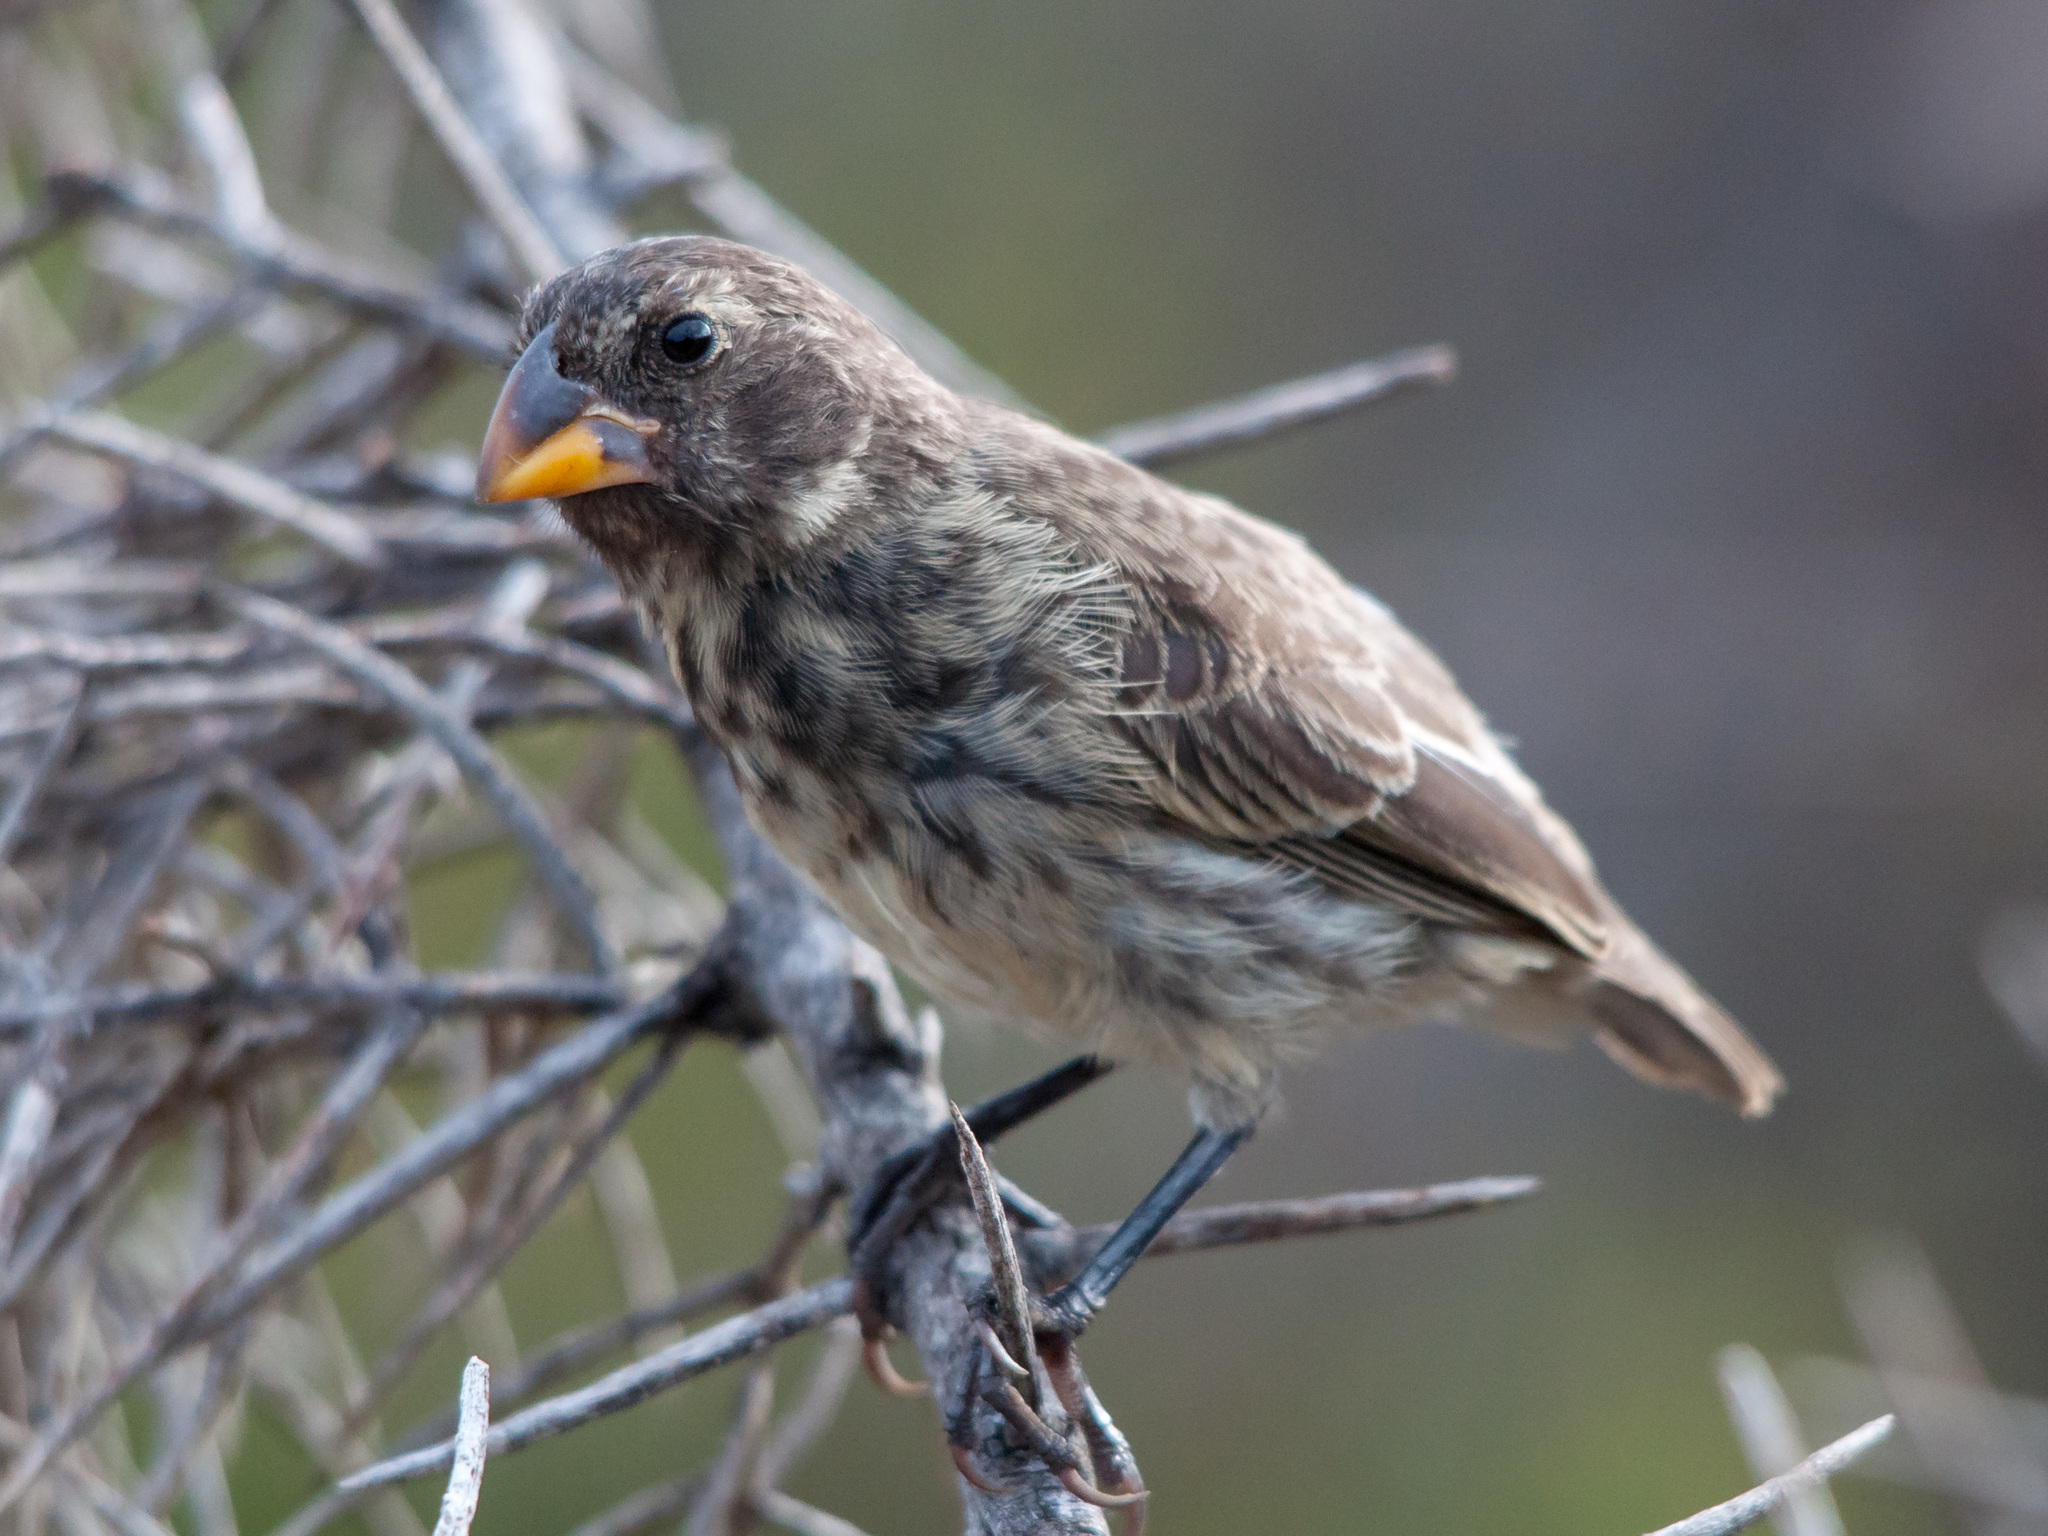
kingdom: Animalia
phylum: Chordata
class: Aves
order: Passeriformes
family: Thraupidae
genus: Geospiza
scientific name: Geospiza fortis
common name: Medium ground finch
